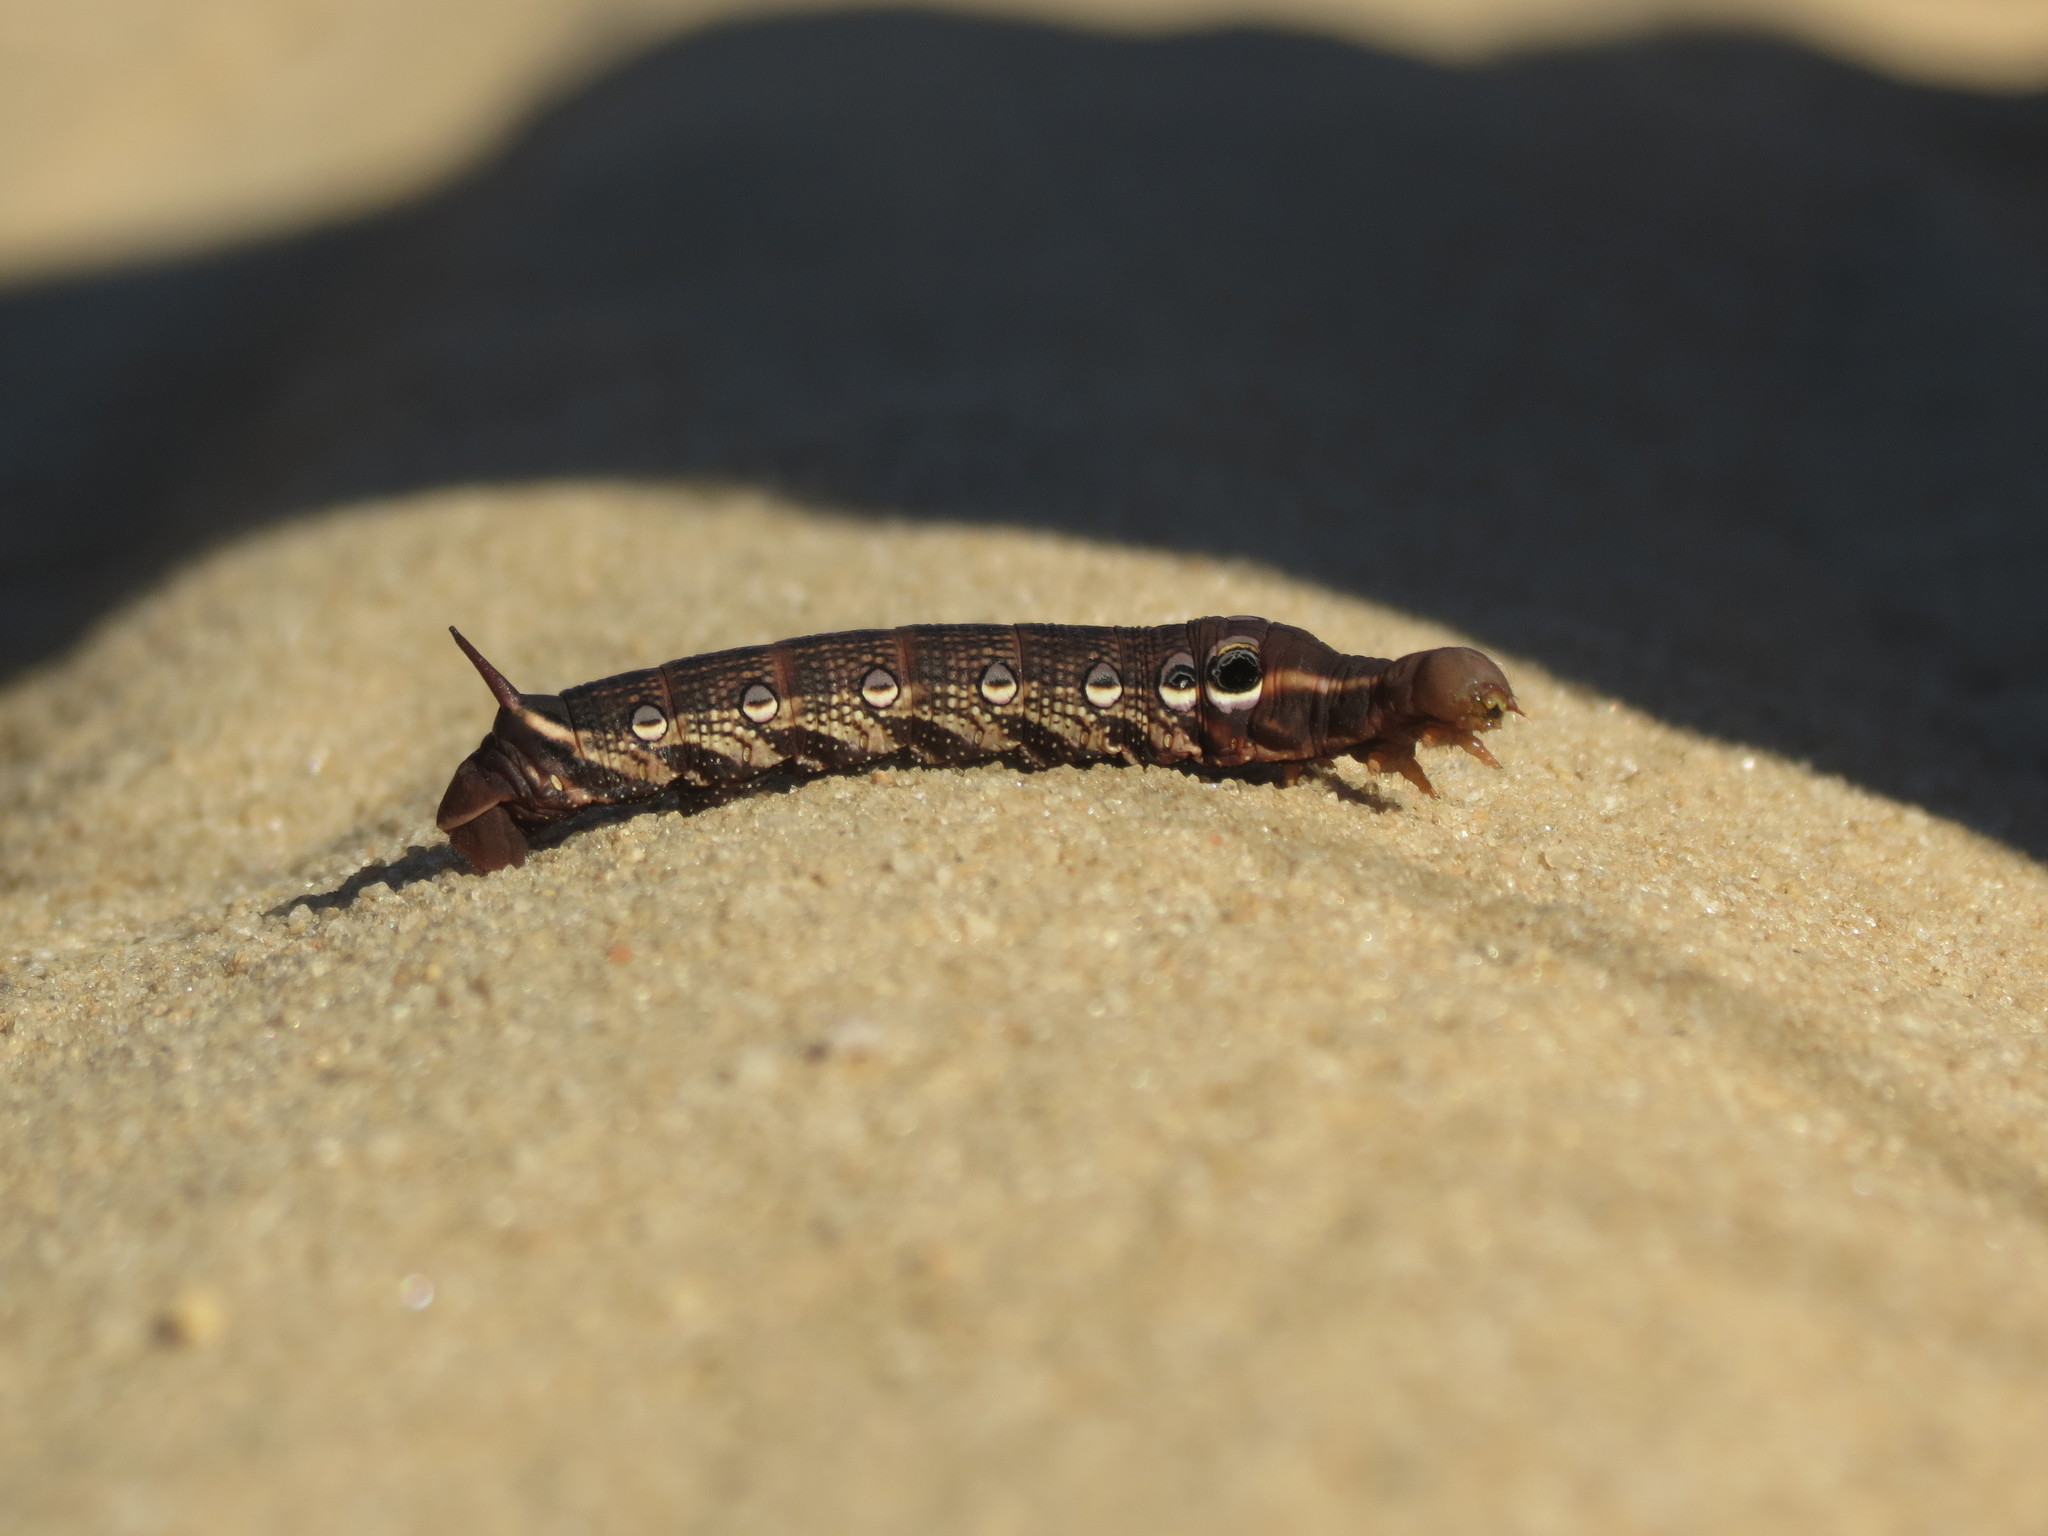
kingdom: Animalia
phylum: Arthropoda
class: Insecta
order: Lepidoptera
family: Sphingidae
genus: Xylophanes
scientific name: Xylophanes tersa
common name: Tersa sphinx
